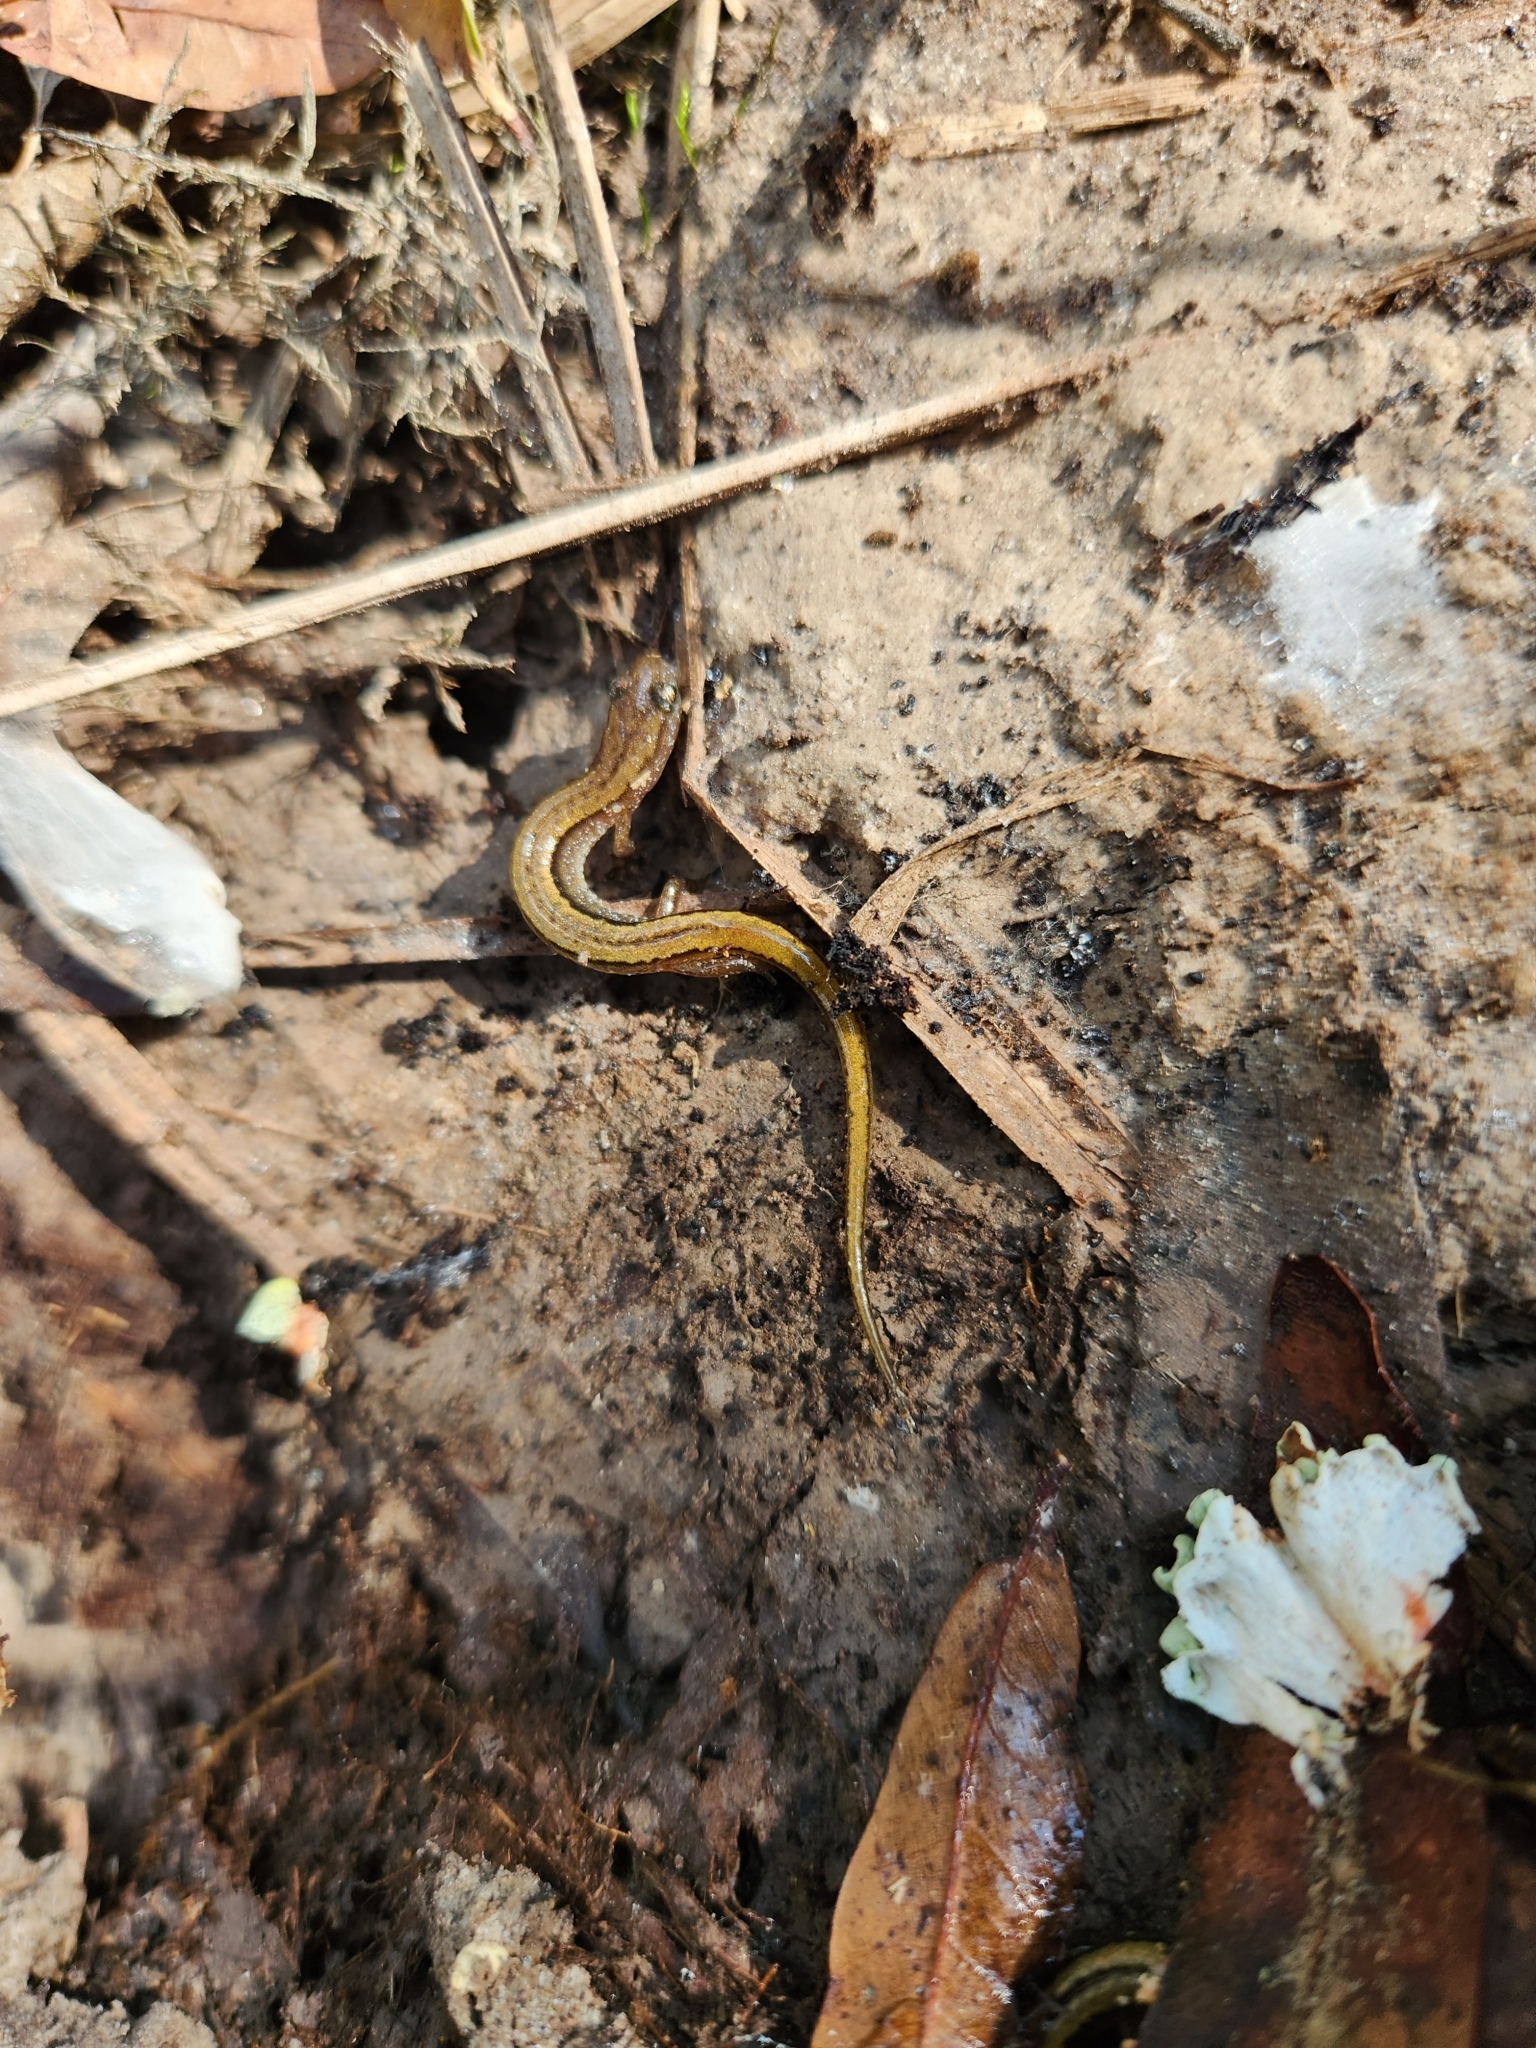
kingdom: Animalia
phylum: Chordata
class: Amphibia
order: Caudata
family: Plethodontidae
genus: Eurycea
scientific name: Eurycea paludicola
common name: Western dwarf salamander
